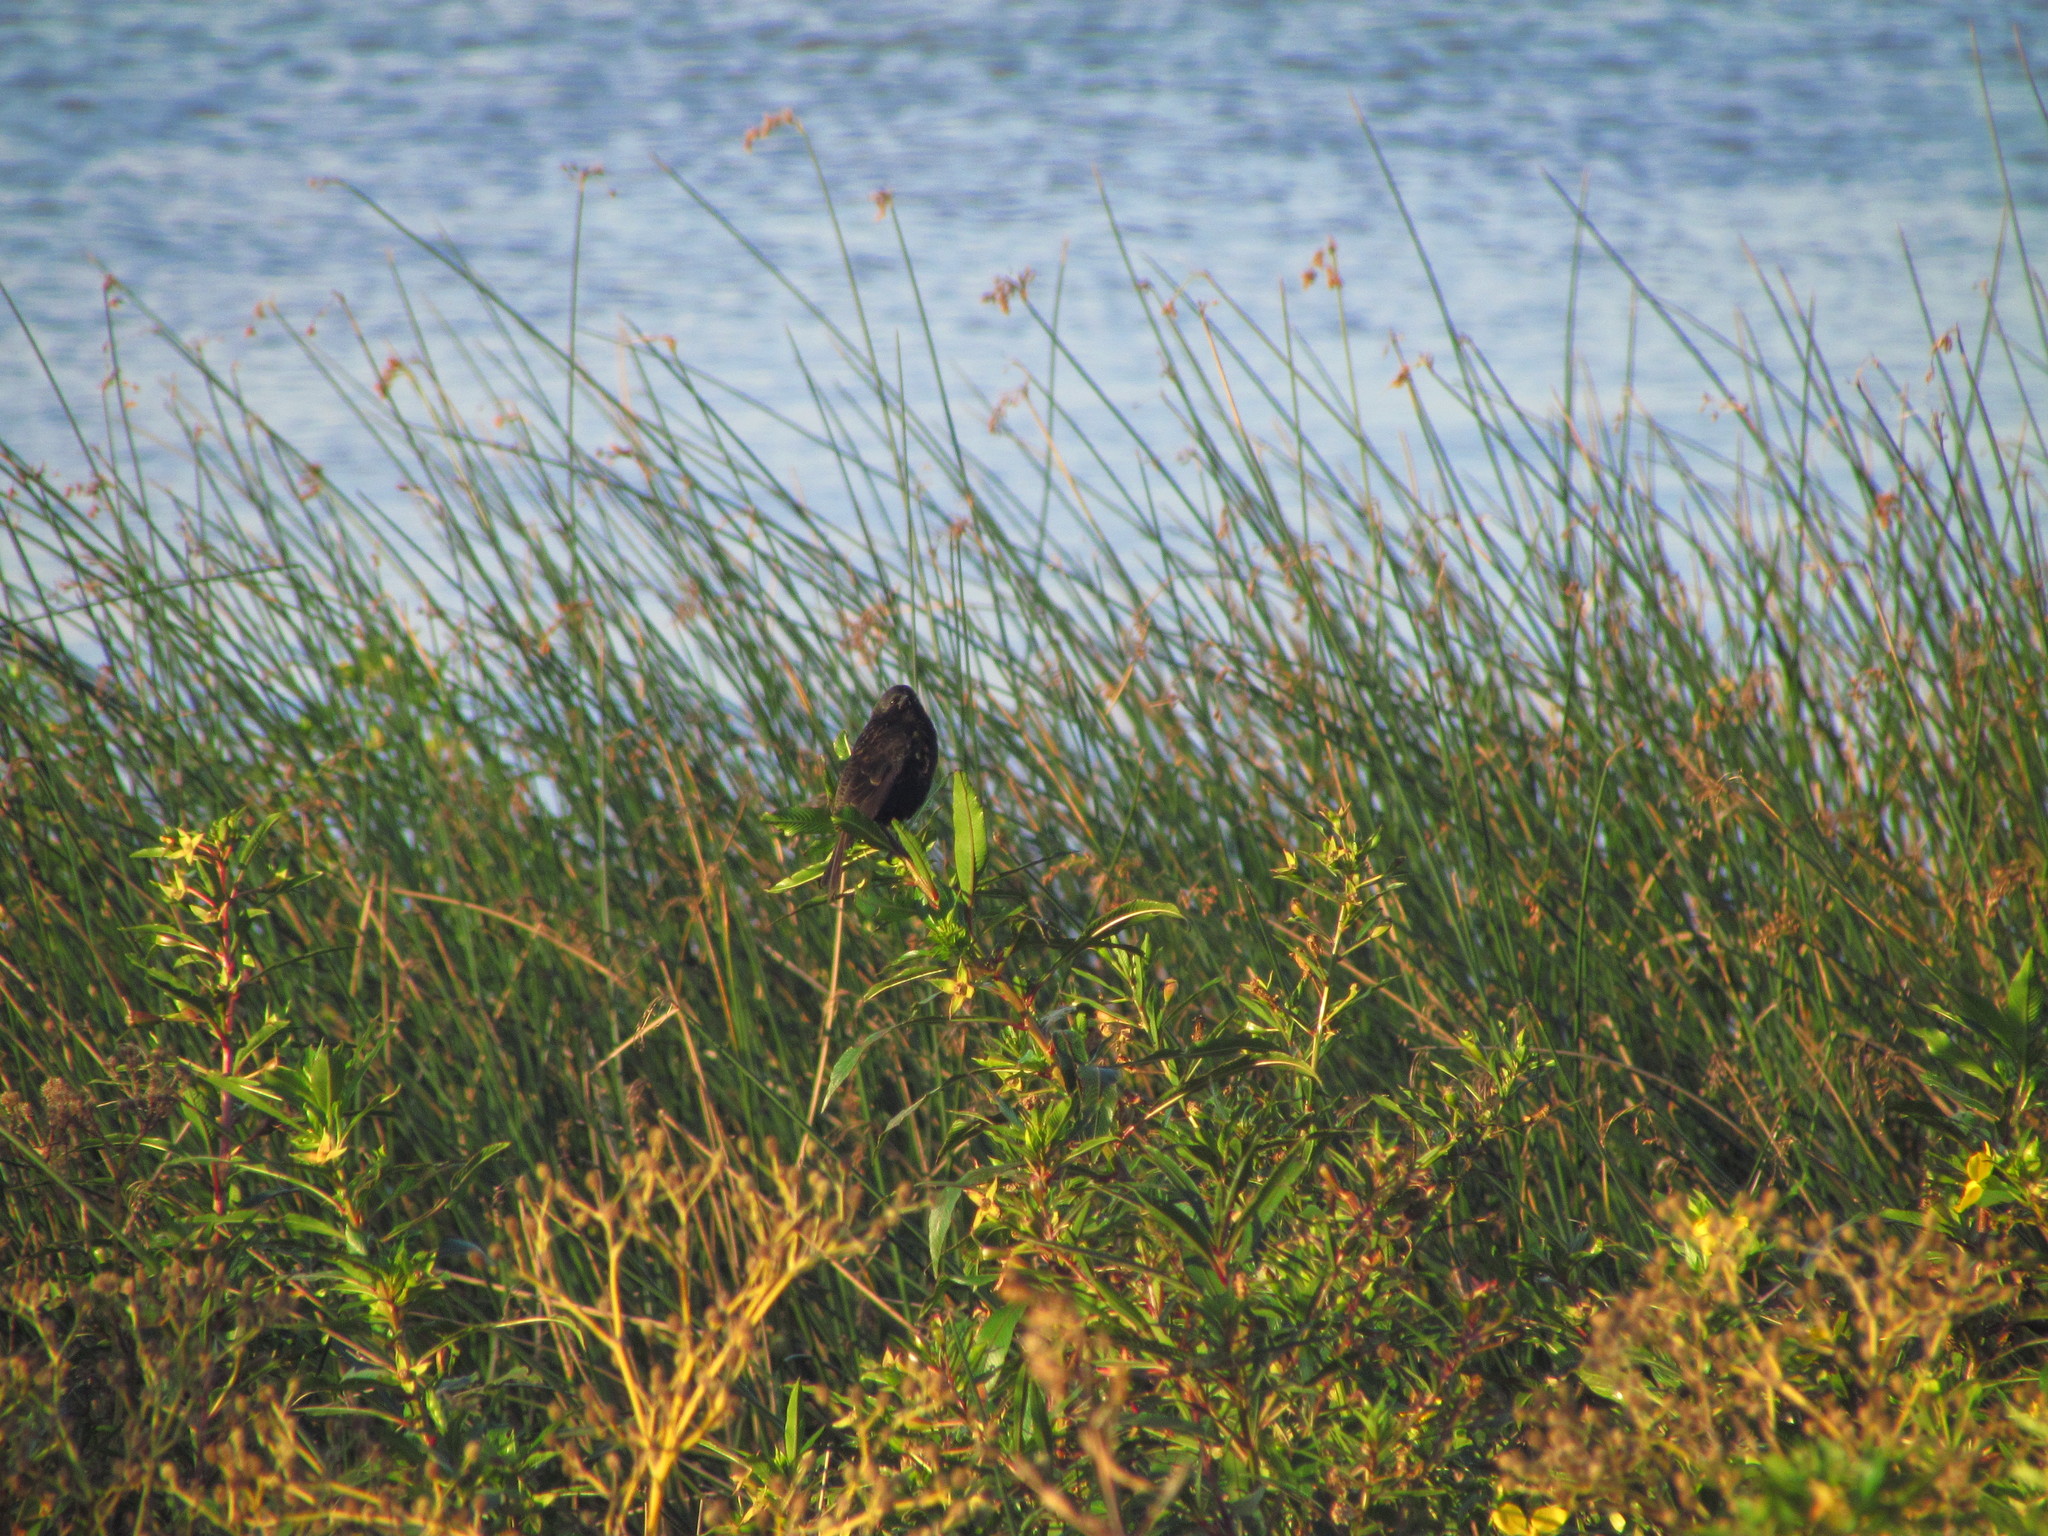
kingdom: Animalia
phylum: Chordata
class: Aves
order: Passeriformes
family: Icteridae
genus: Agelasticus
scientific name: Agelasticus thilius
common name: Yellow-winged blackbird
